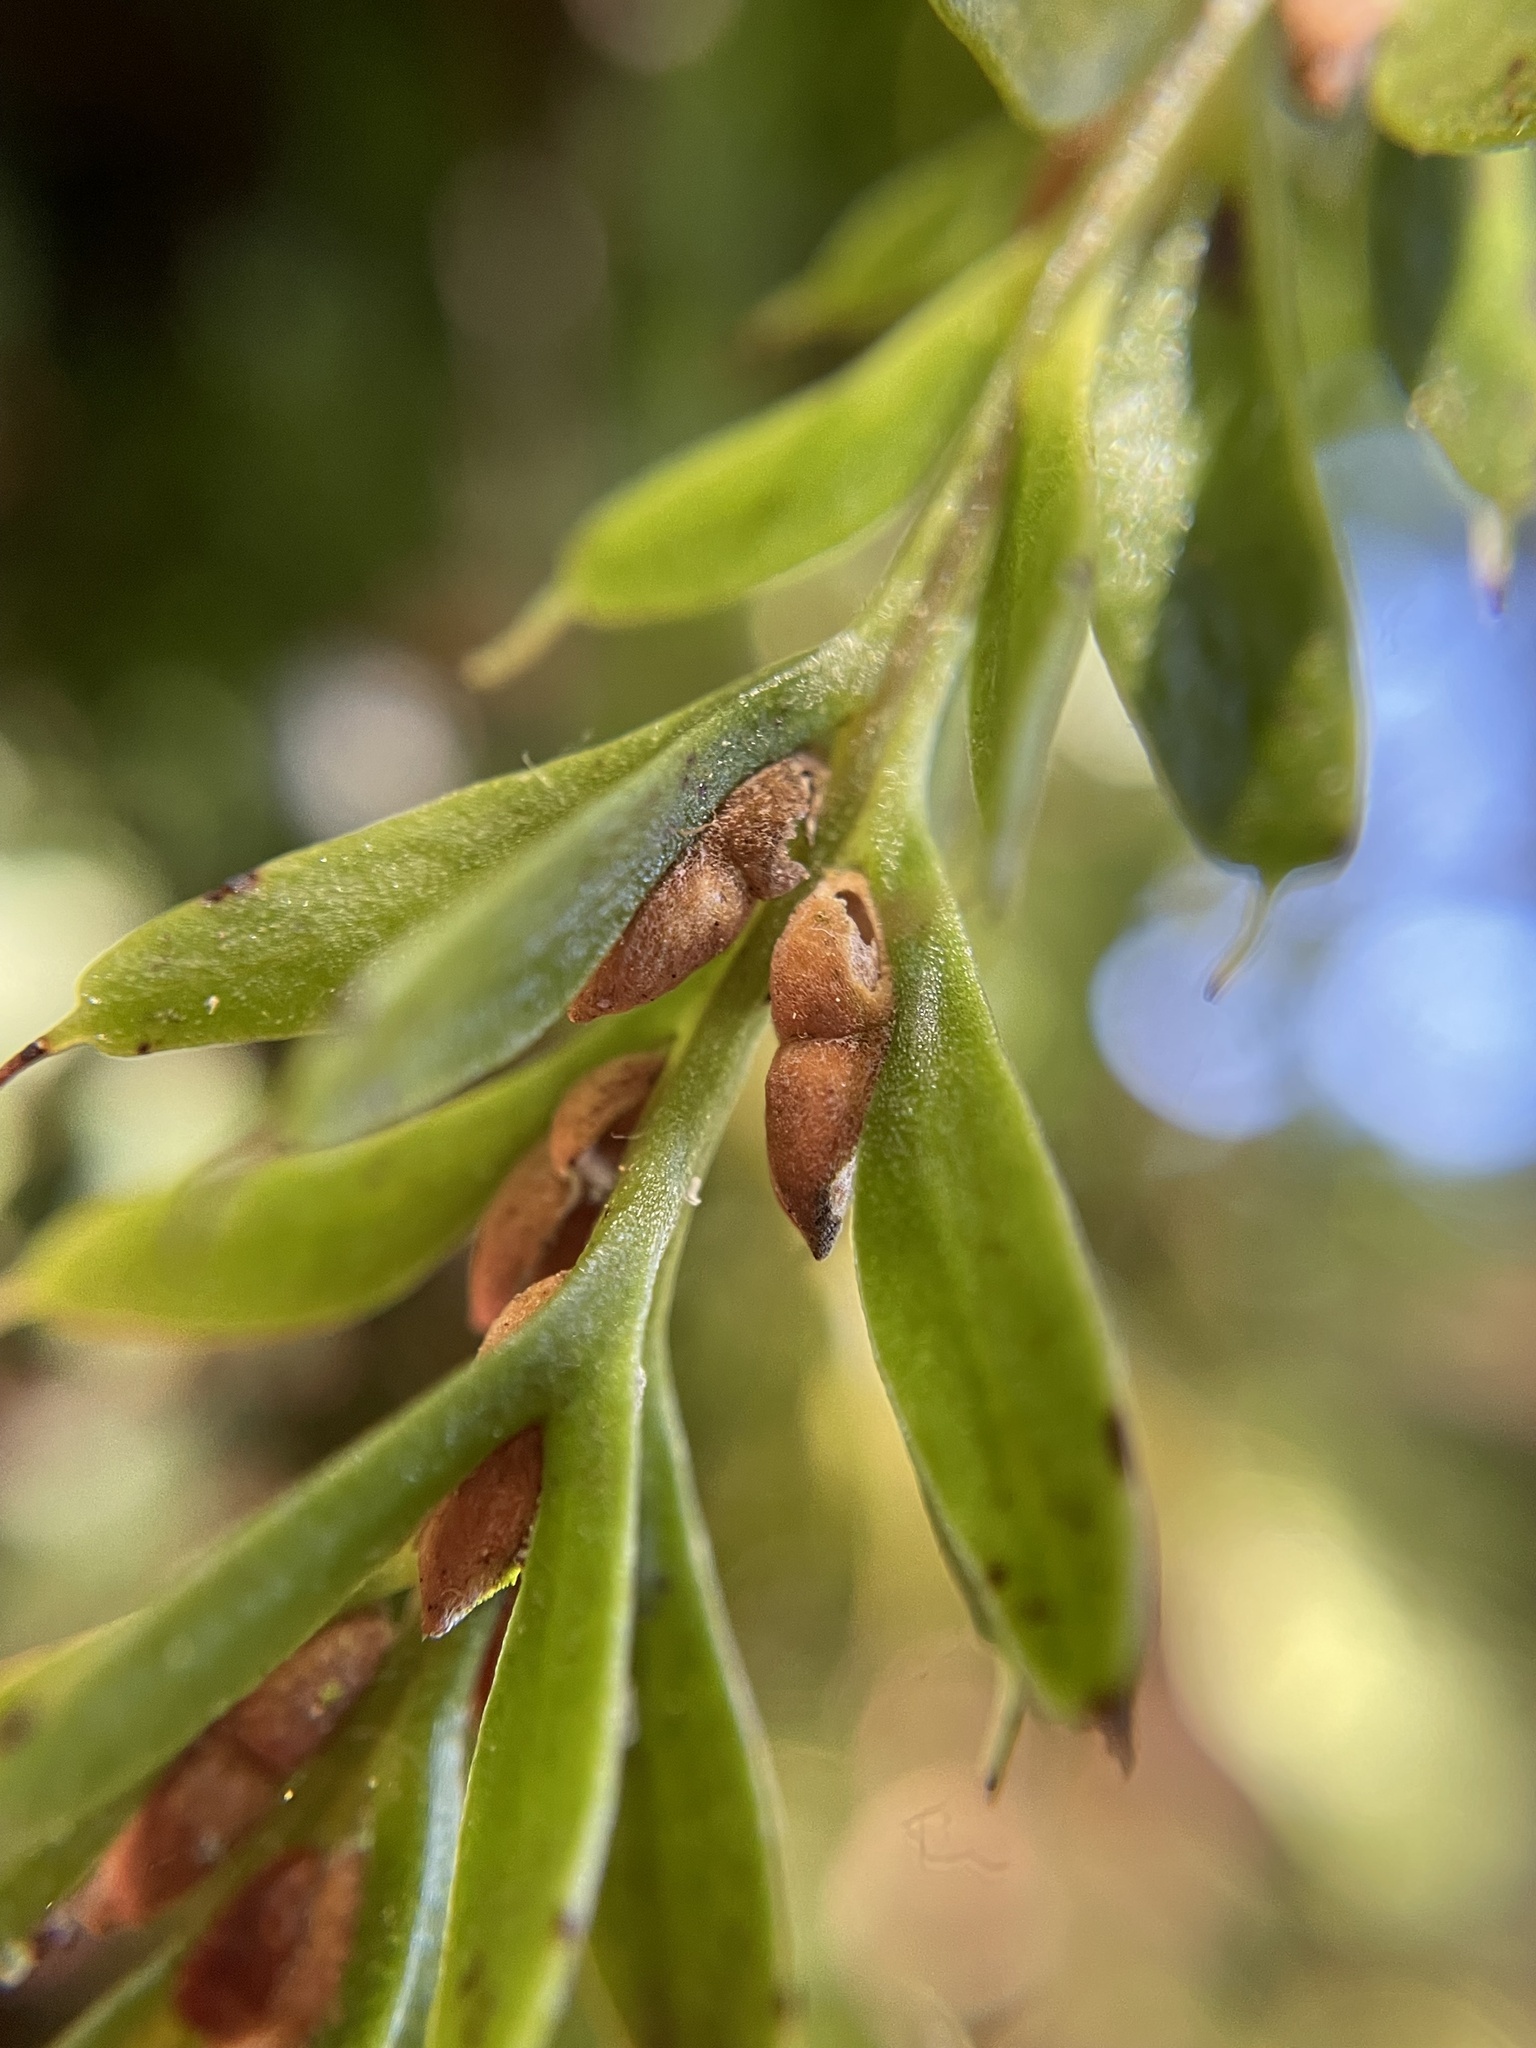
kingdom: Plantae
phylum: Tracheophyta
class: Polypodiopsida
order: Psilotales
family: Psilotaceae
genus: Tmesipteris
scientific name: Tmesipteris tannensis
